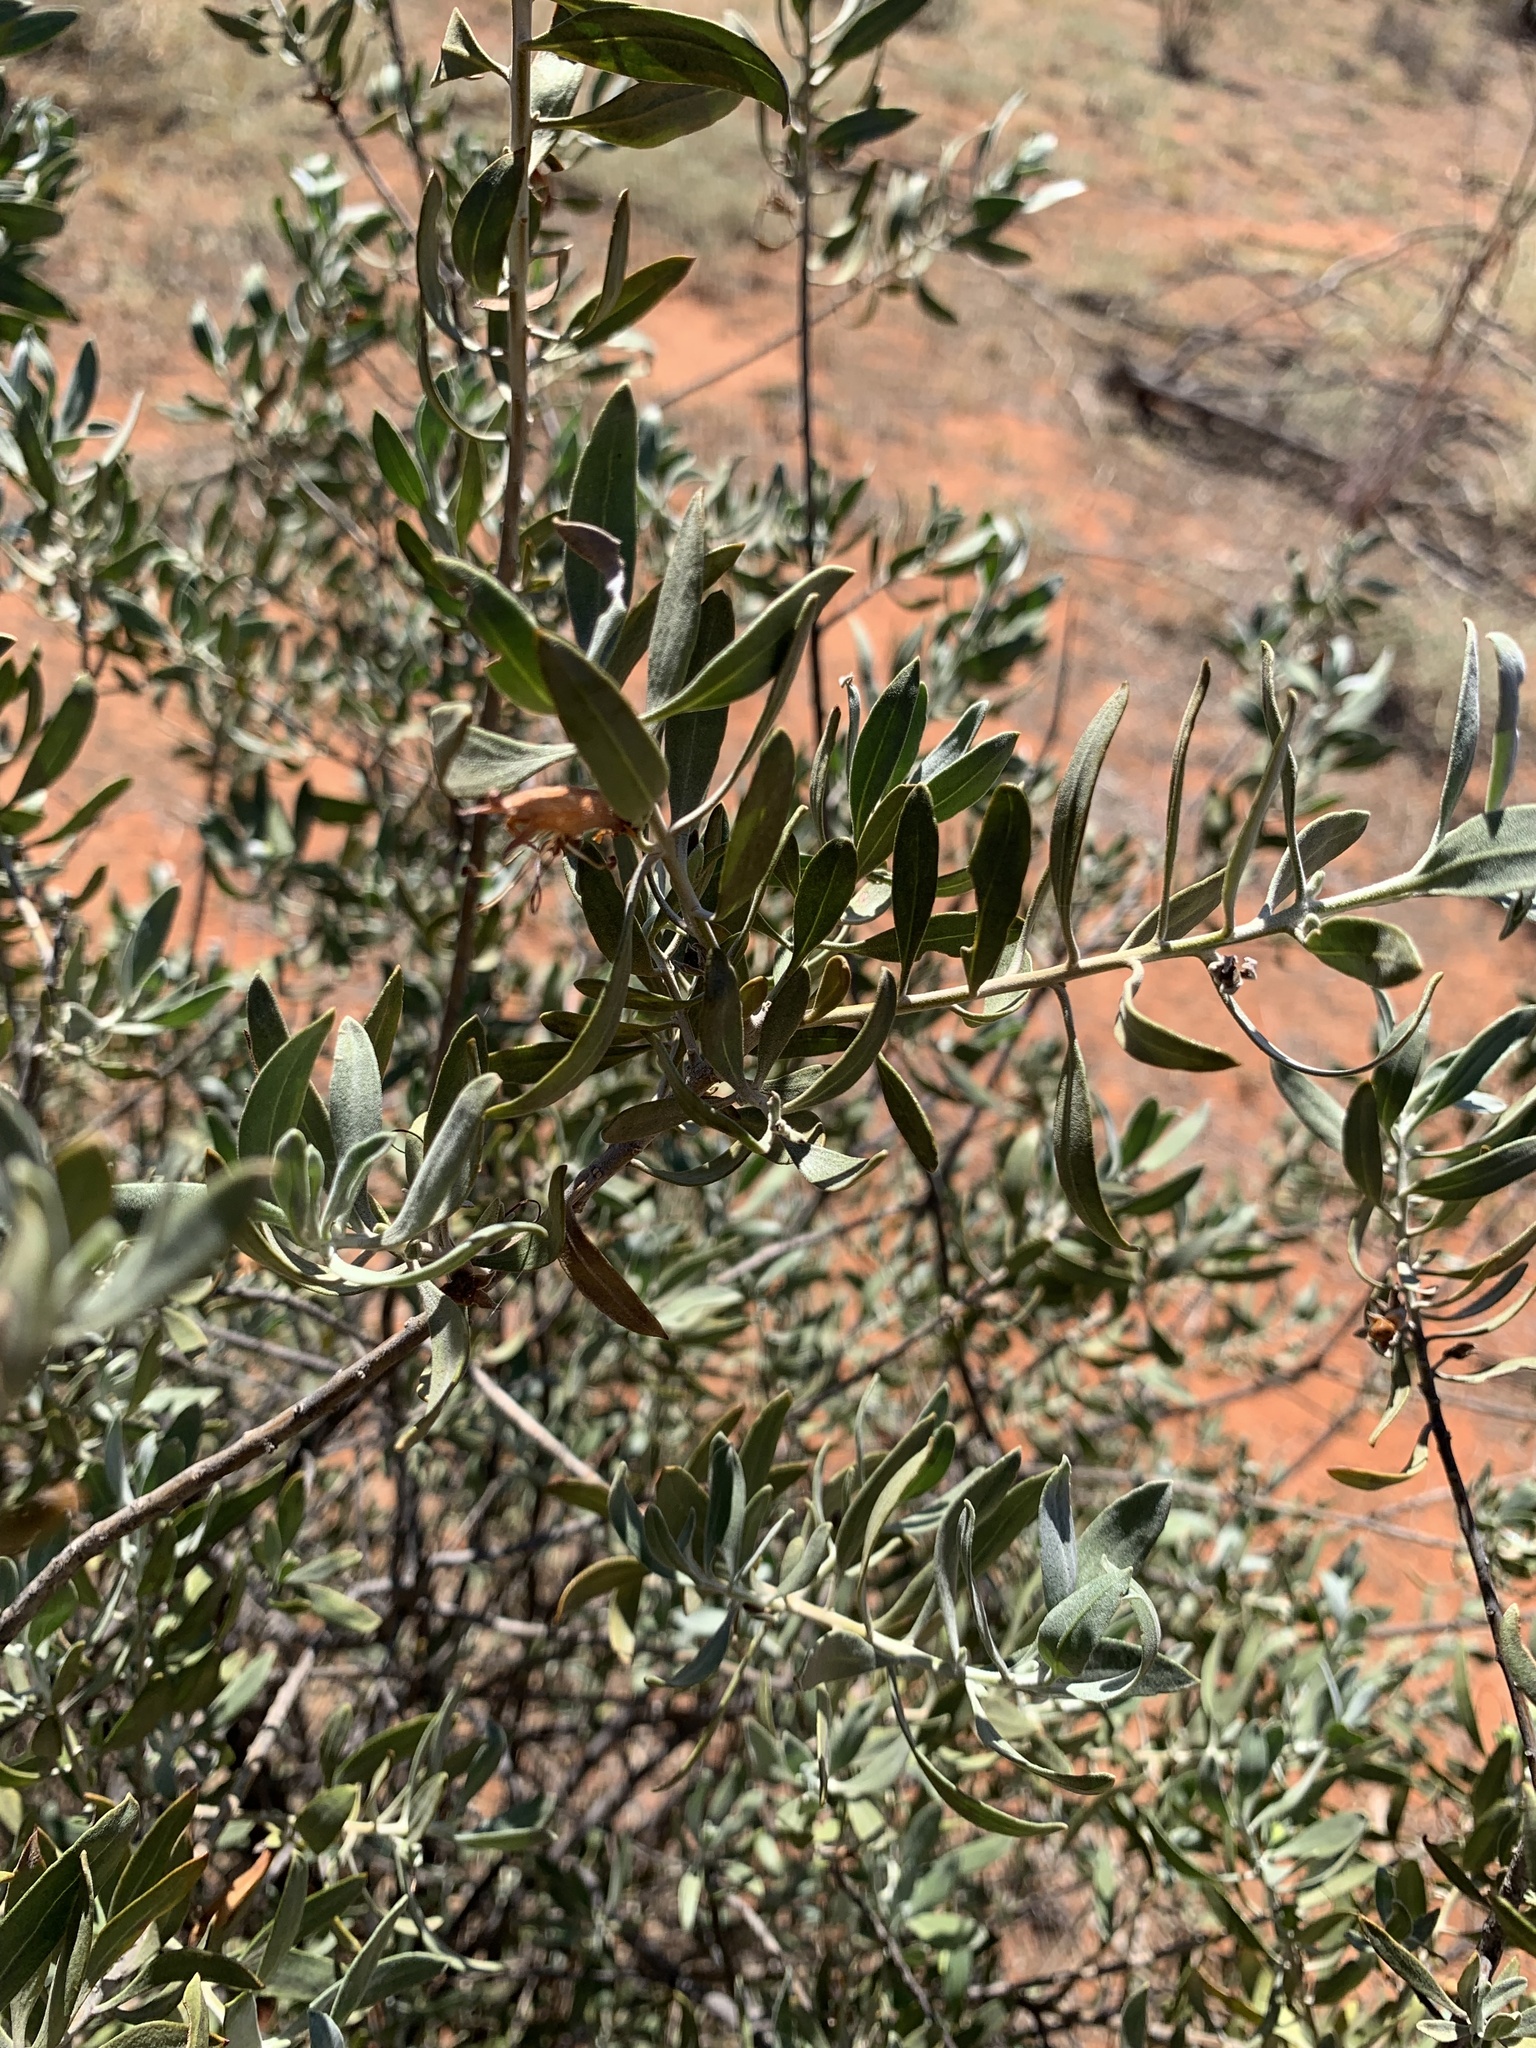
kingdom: Plantae
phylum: Tracheophyta
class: Magnoliopsida
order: Lamiales
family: Scrophulariaceae
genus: Eremophila
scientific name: Eremophila glabra
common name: Black-fuchsia
